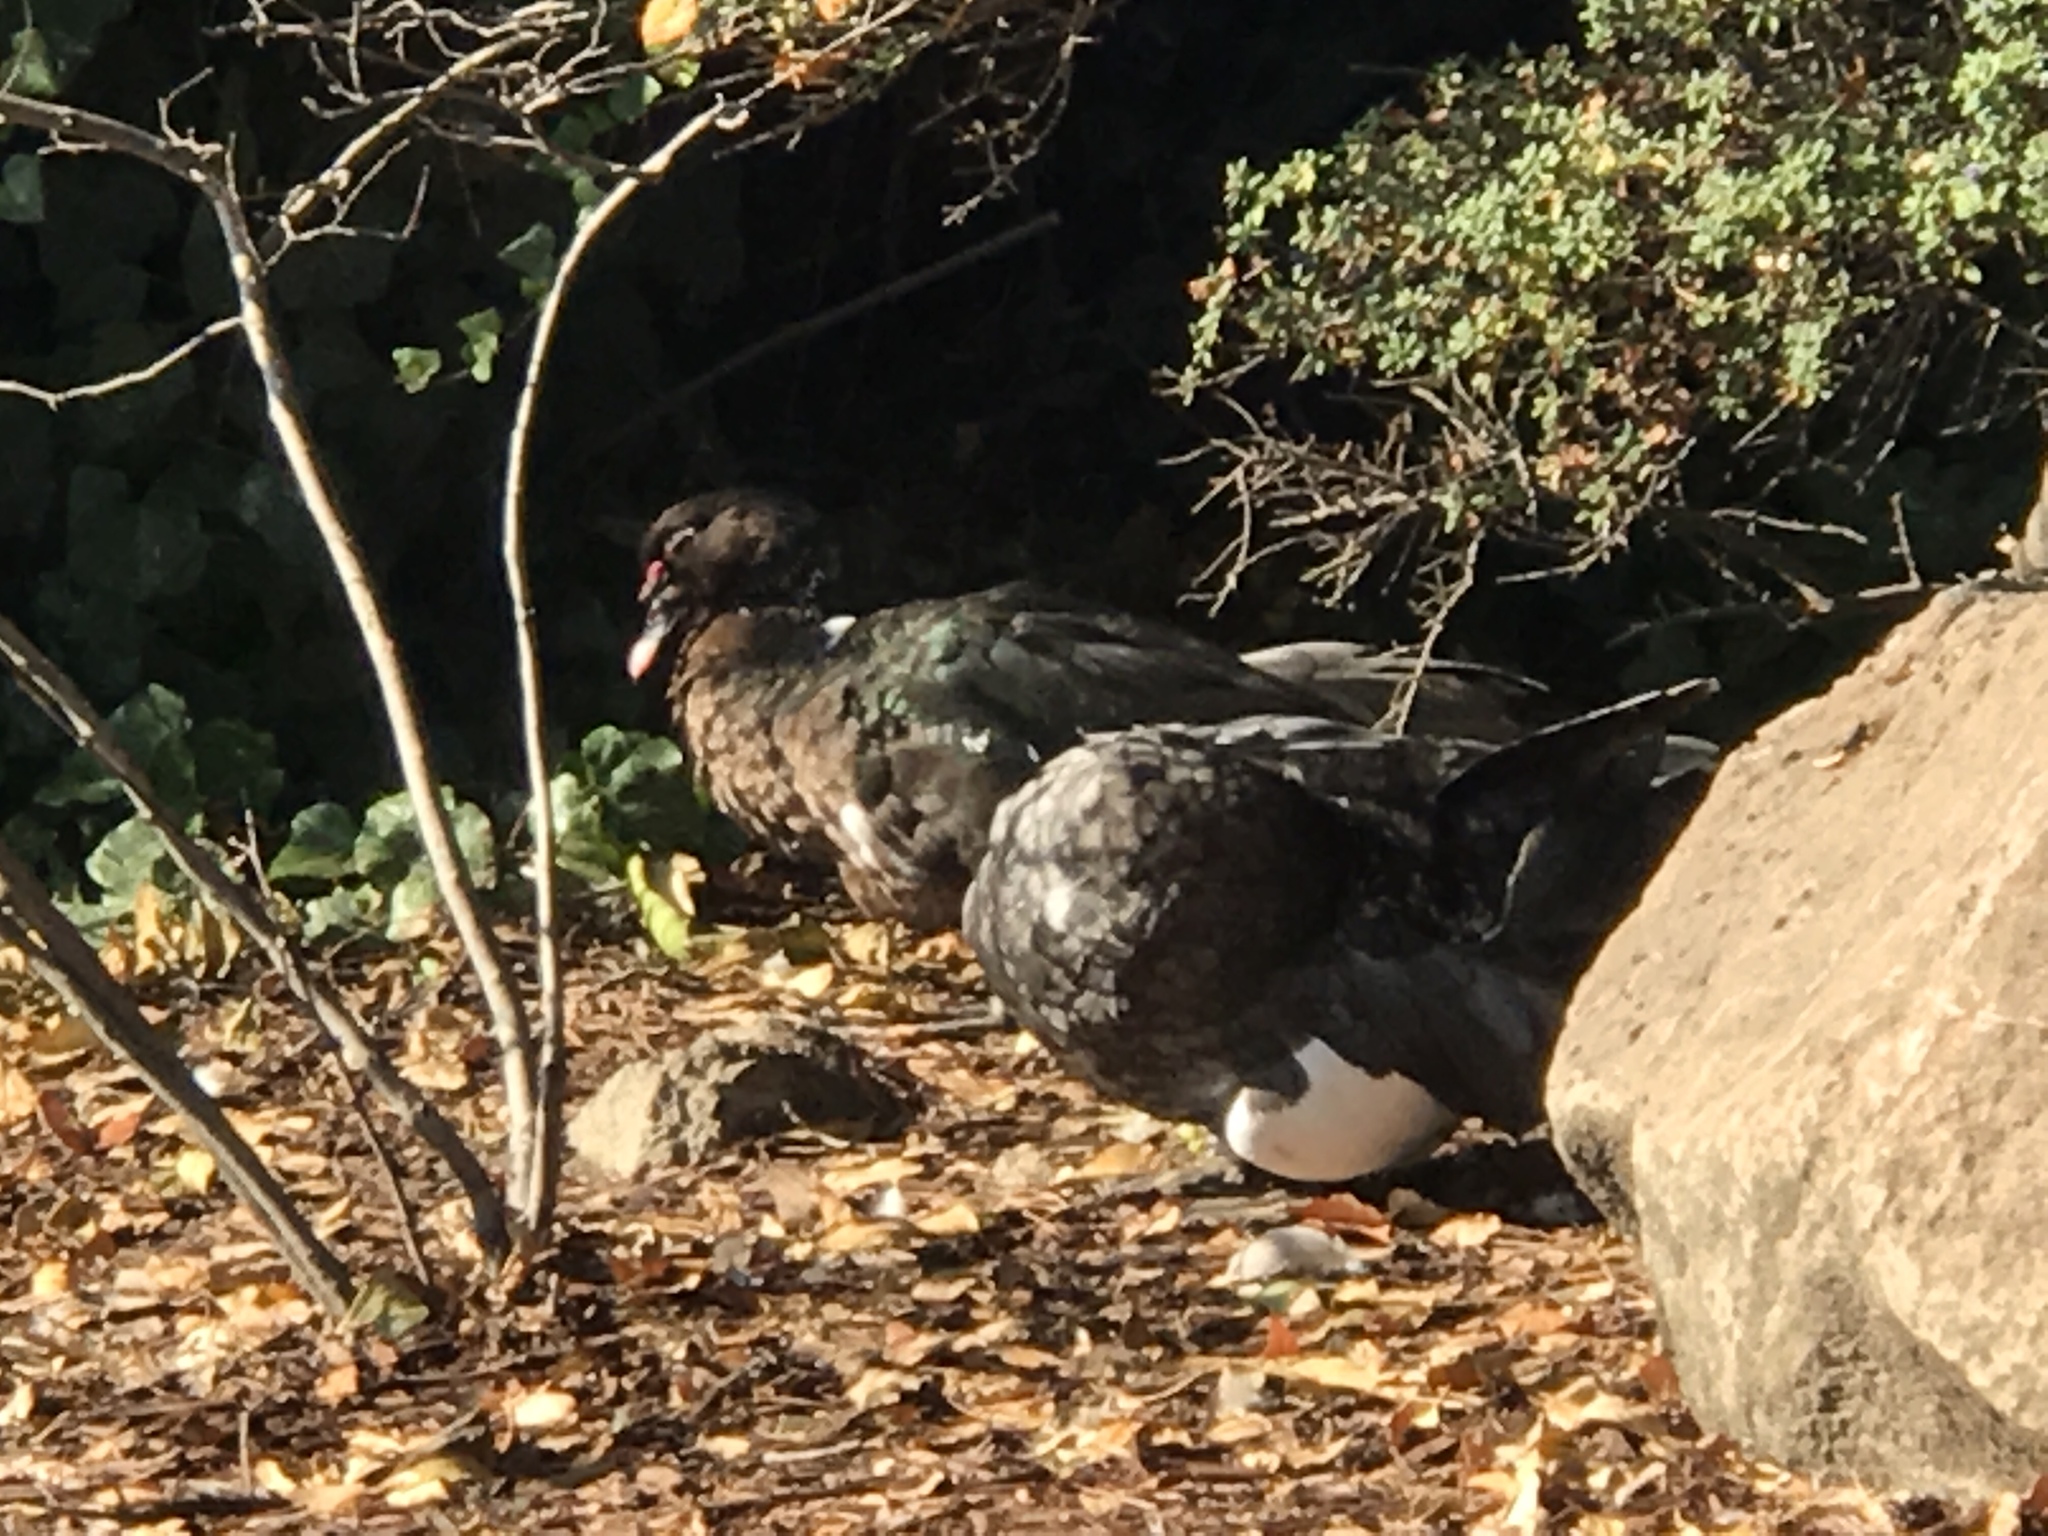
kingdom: Animalia
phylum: Chordata
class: Aves
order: Anseriformes
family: Anatidae
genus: Cairina
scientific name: Cairina moschata
